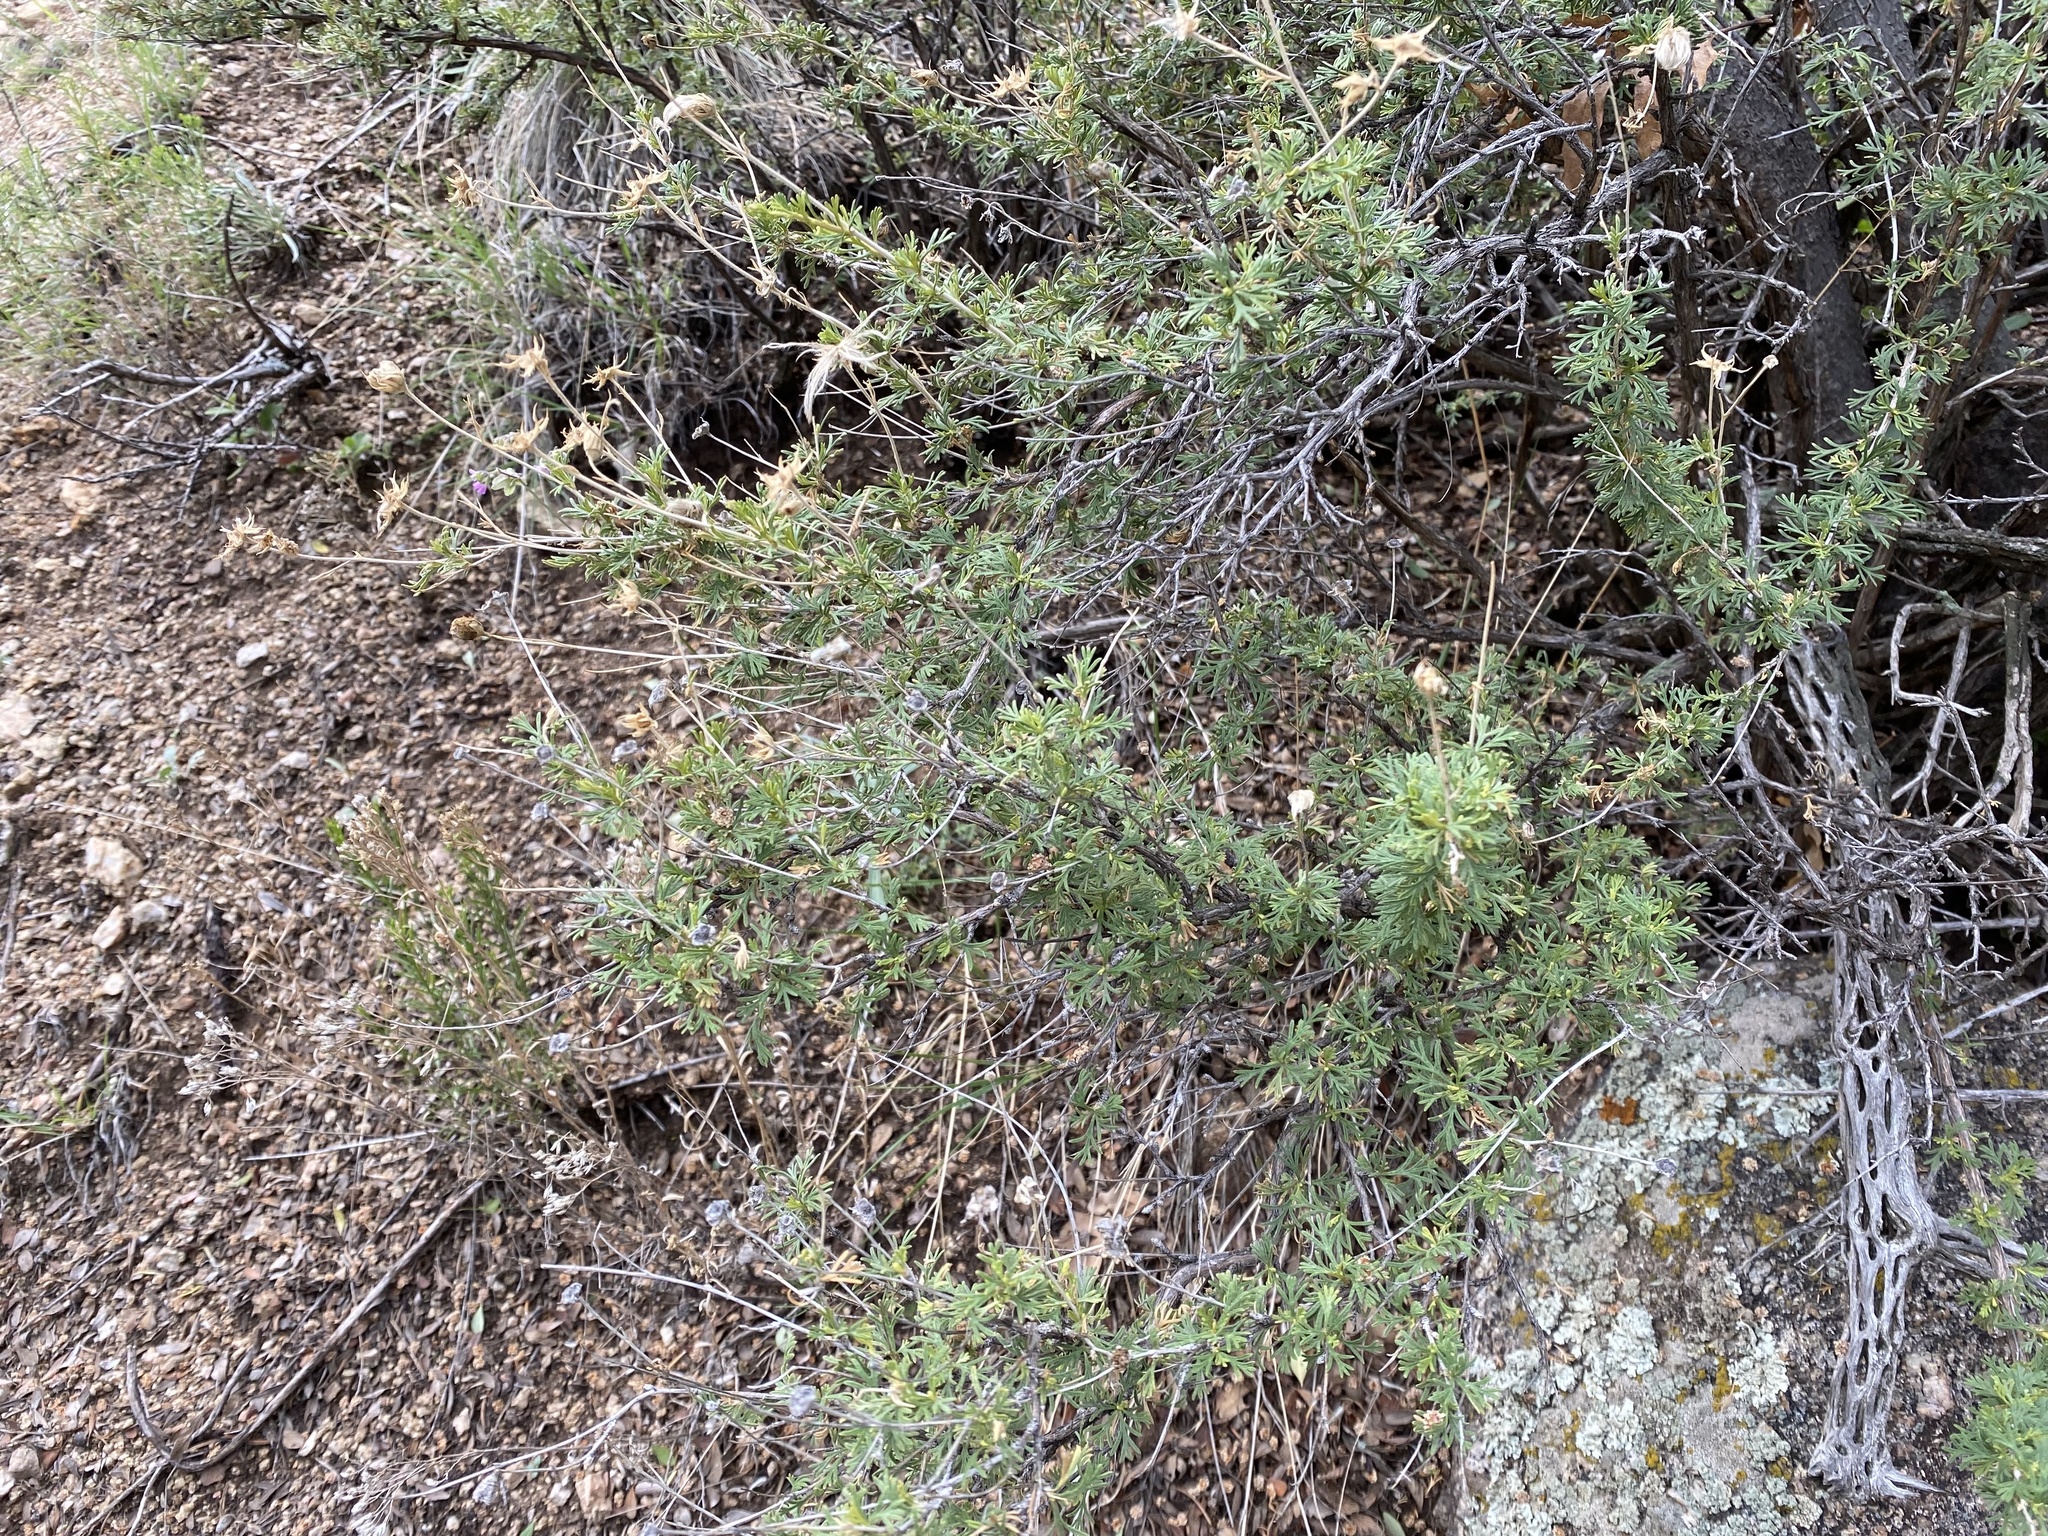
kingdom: Plantae
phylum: Tracheophyta
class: Magnoliopsida
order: Rosales
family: Rosaceae
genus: Fallugia
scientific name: Fallugia paradoxa
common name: Apache-plume
